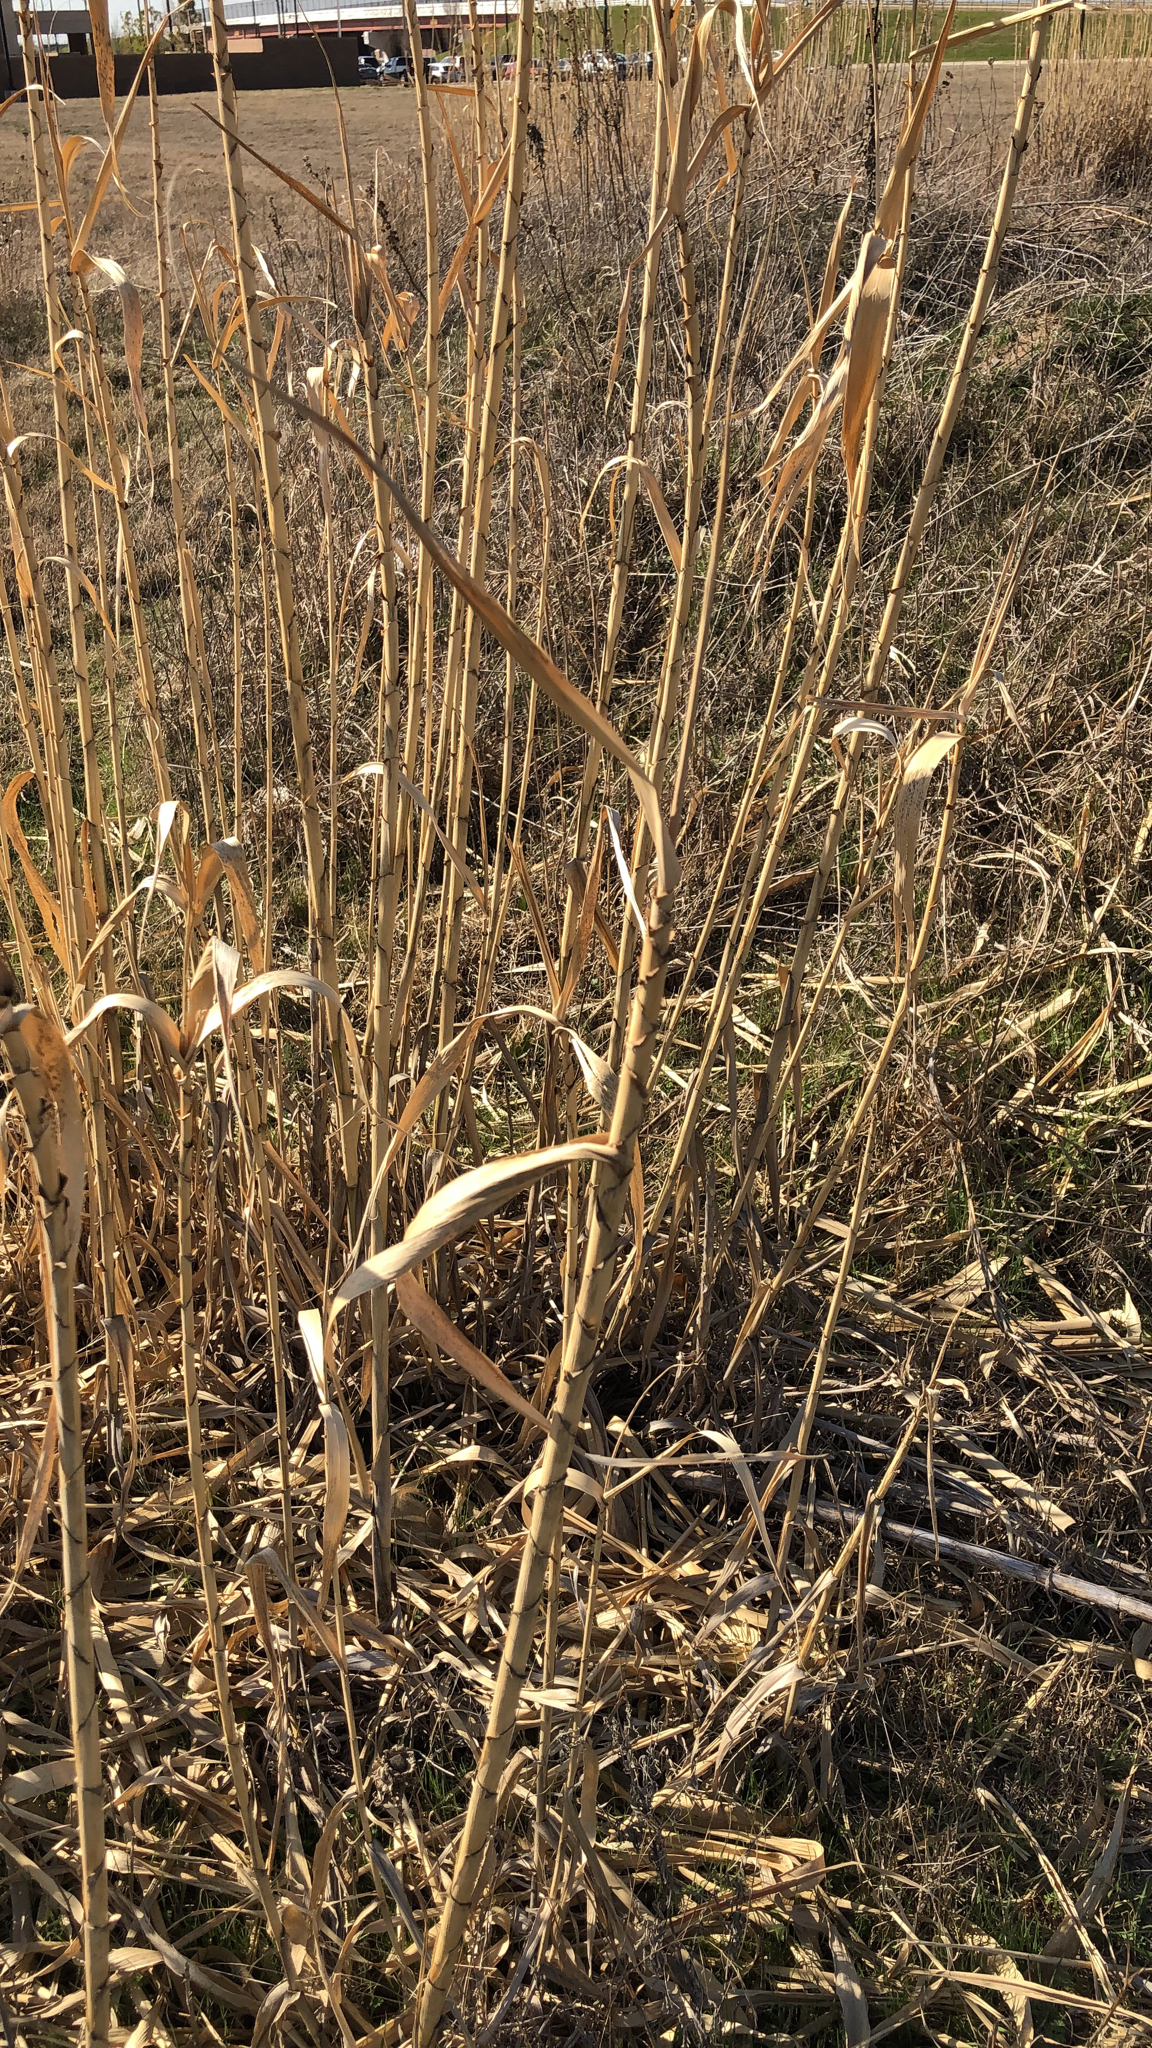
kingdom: Plantae
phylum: Tracheophyta
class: Liliopsida
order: Poales
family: Poaceae
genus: Phragmites
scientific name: Phragmites australis
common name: Common reed
